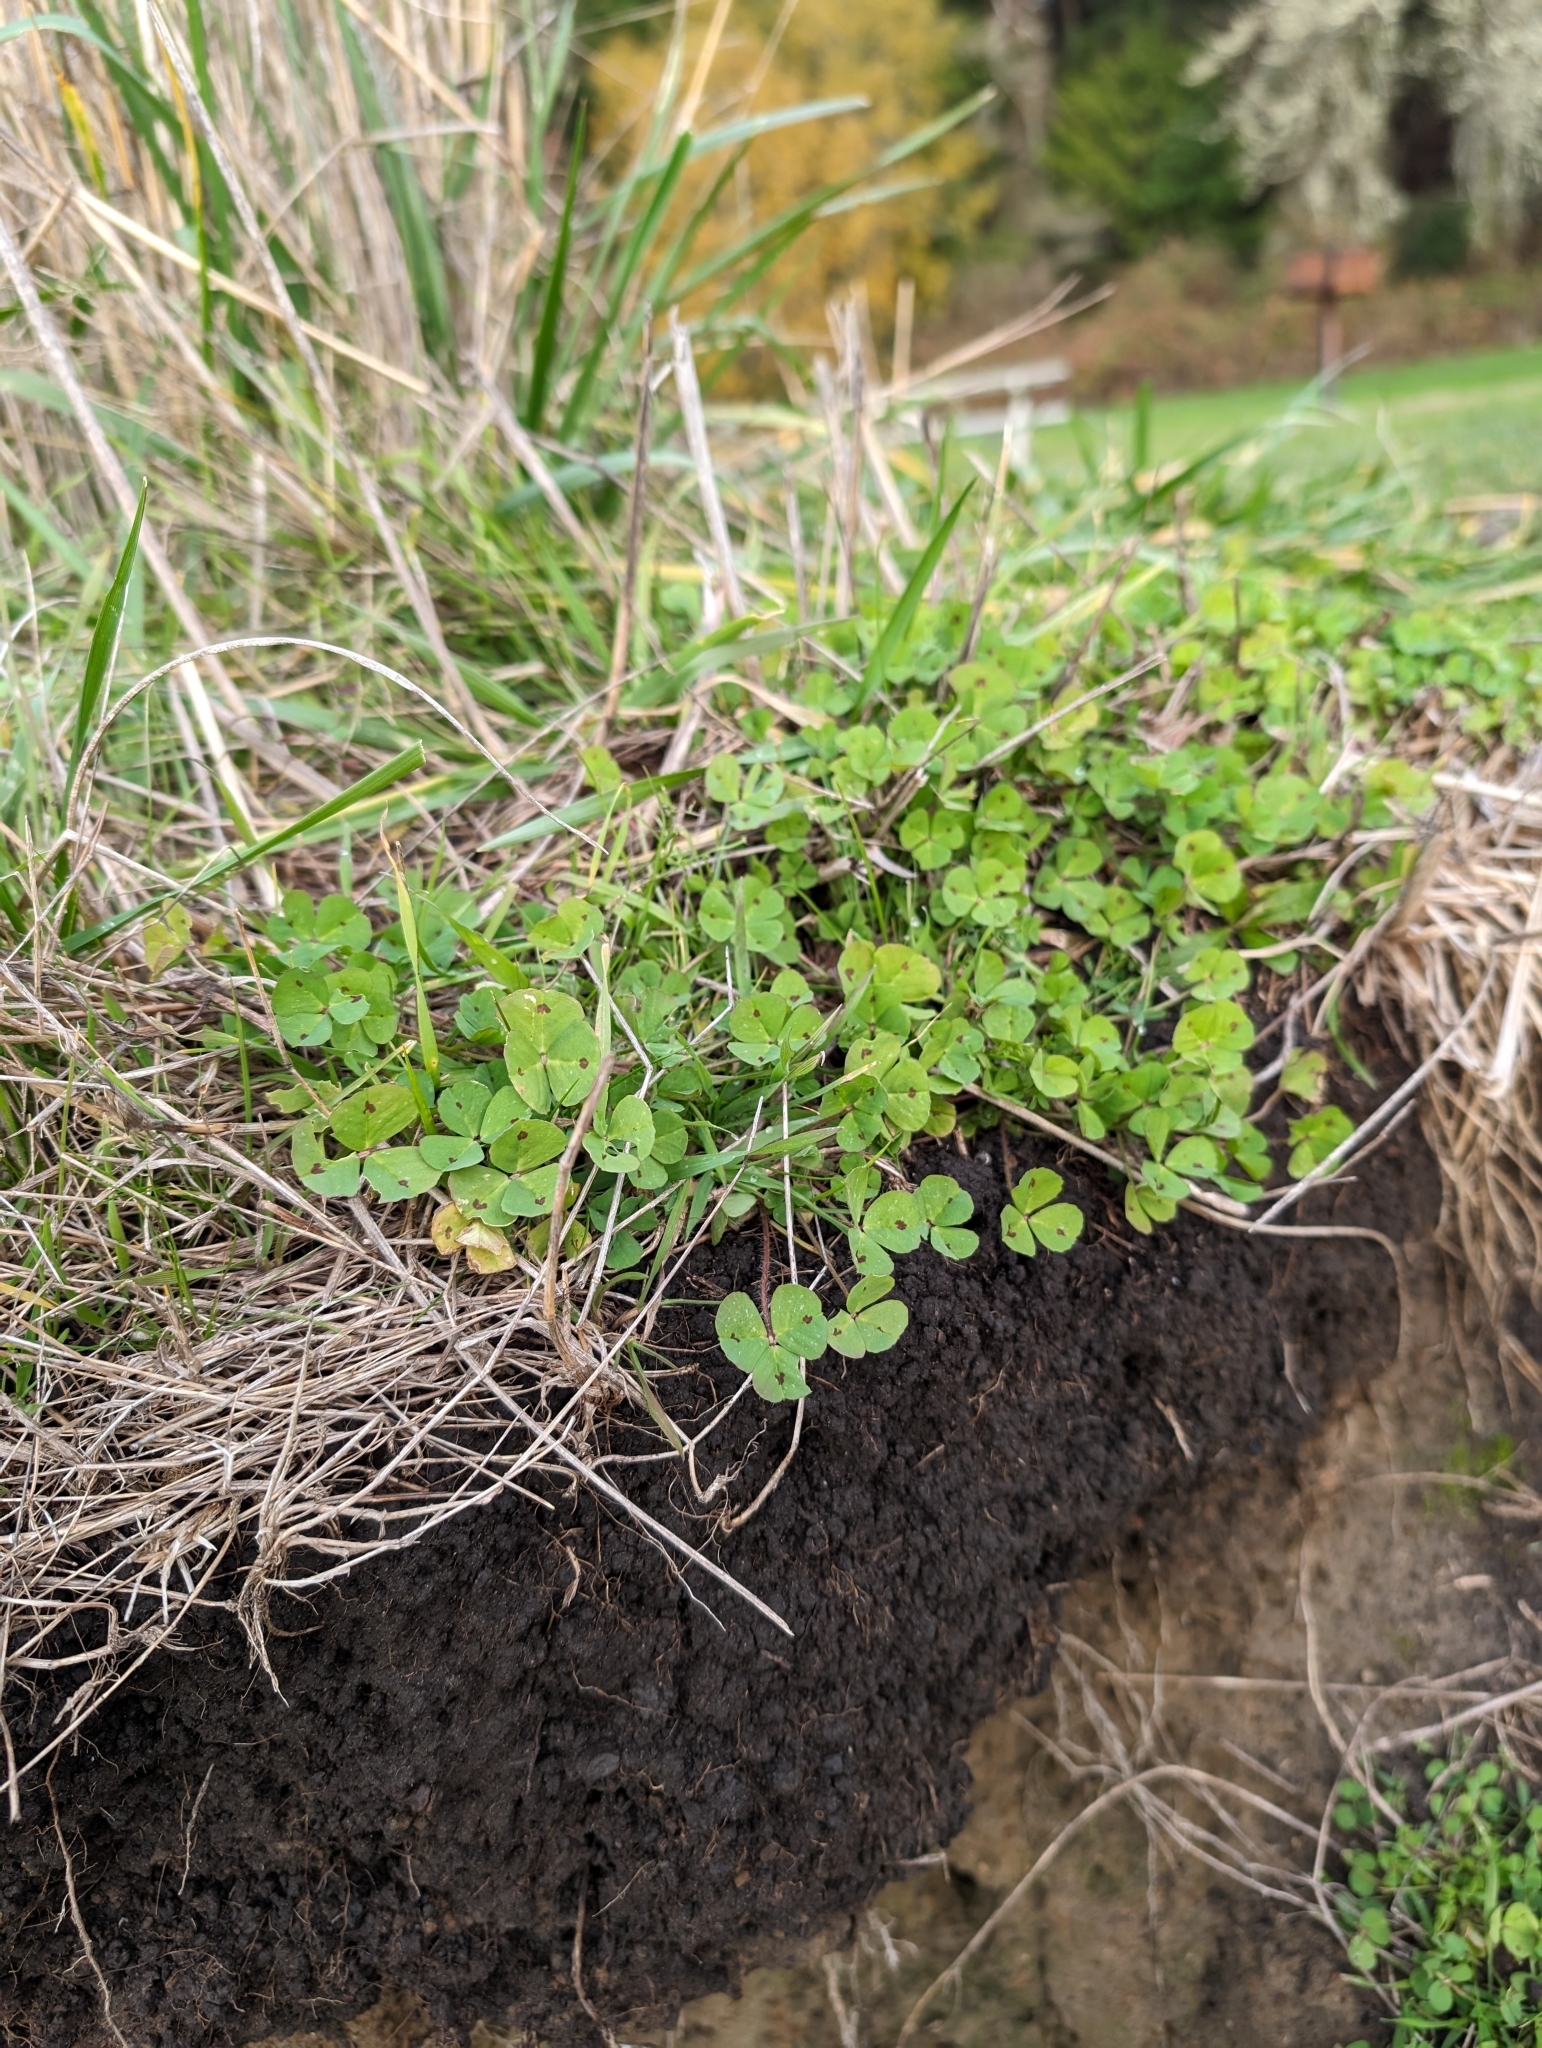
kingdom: Plantae
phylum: Tracheophyta
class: Magnoliopsida
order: Fabales
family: Fabaceae
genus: Medicago
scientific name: Medicago arabica
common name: Spotted medick
